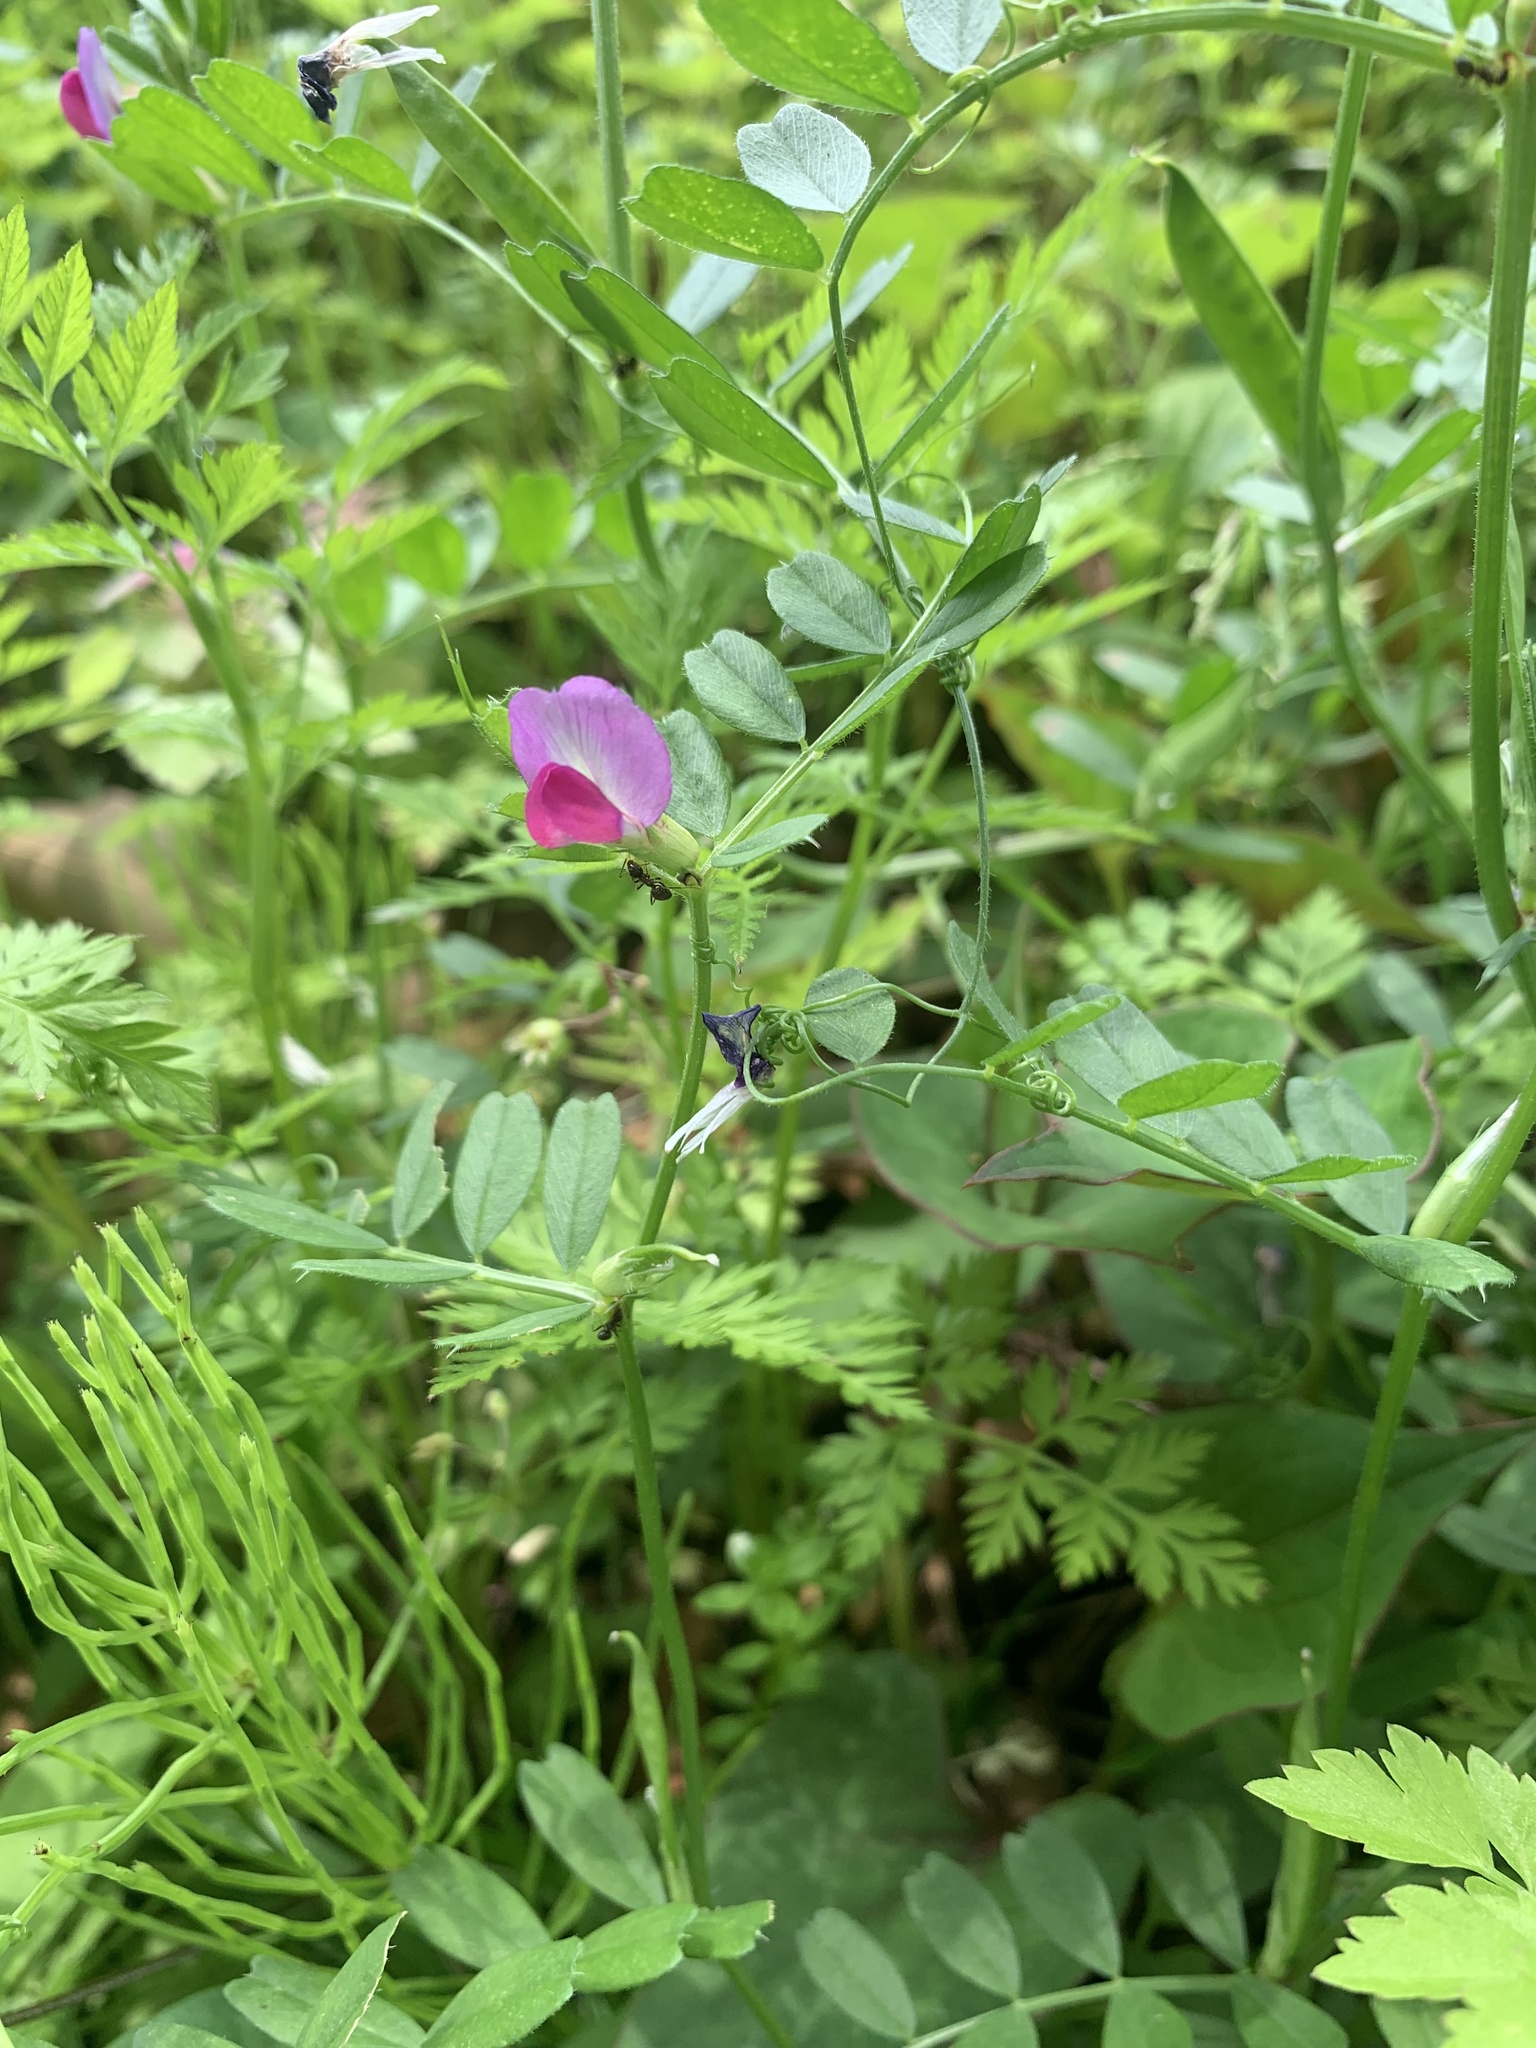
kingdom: Plantae
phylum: Tracheophyta
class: Magnoliopsida
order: Fabales
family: Fabaceae
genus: Vicia
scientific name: Vicia sativa
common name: Garden vetch
